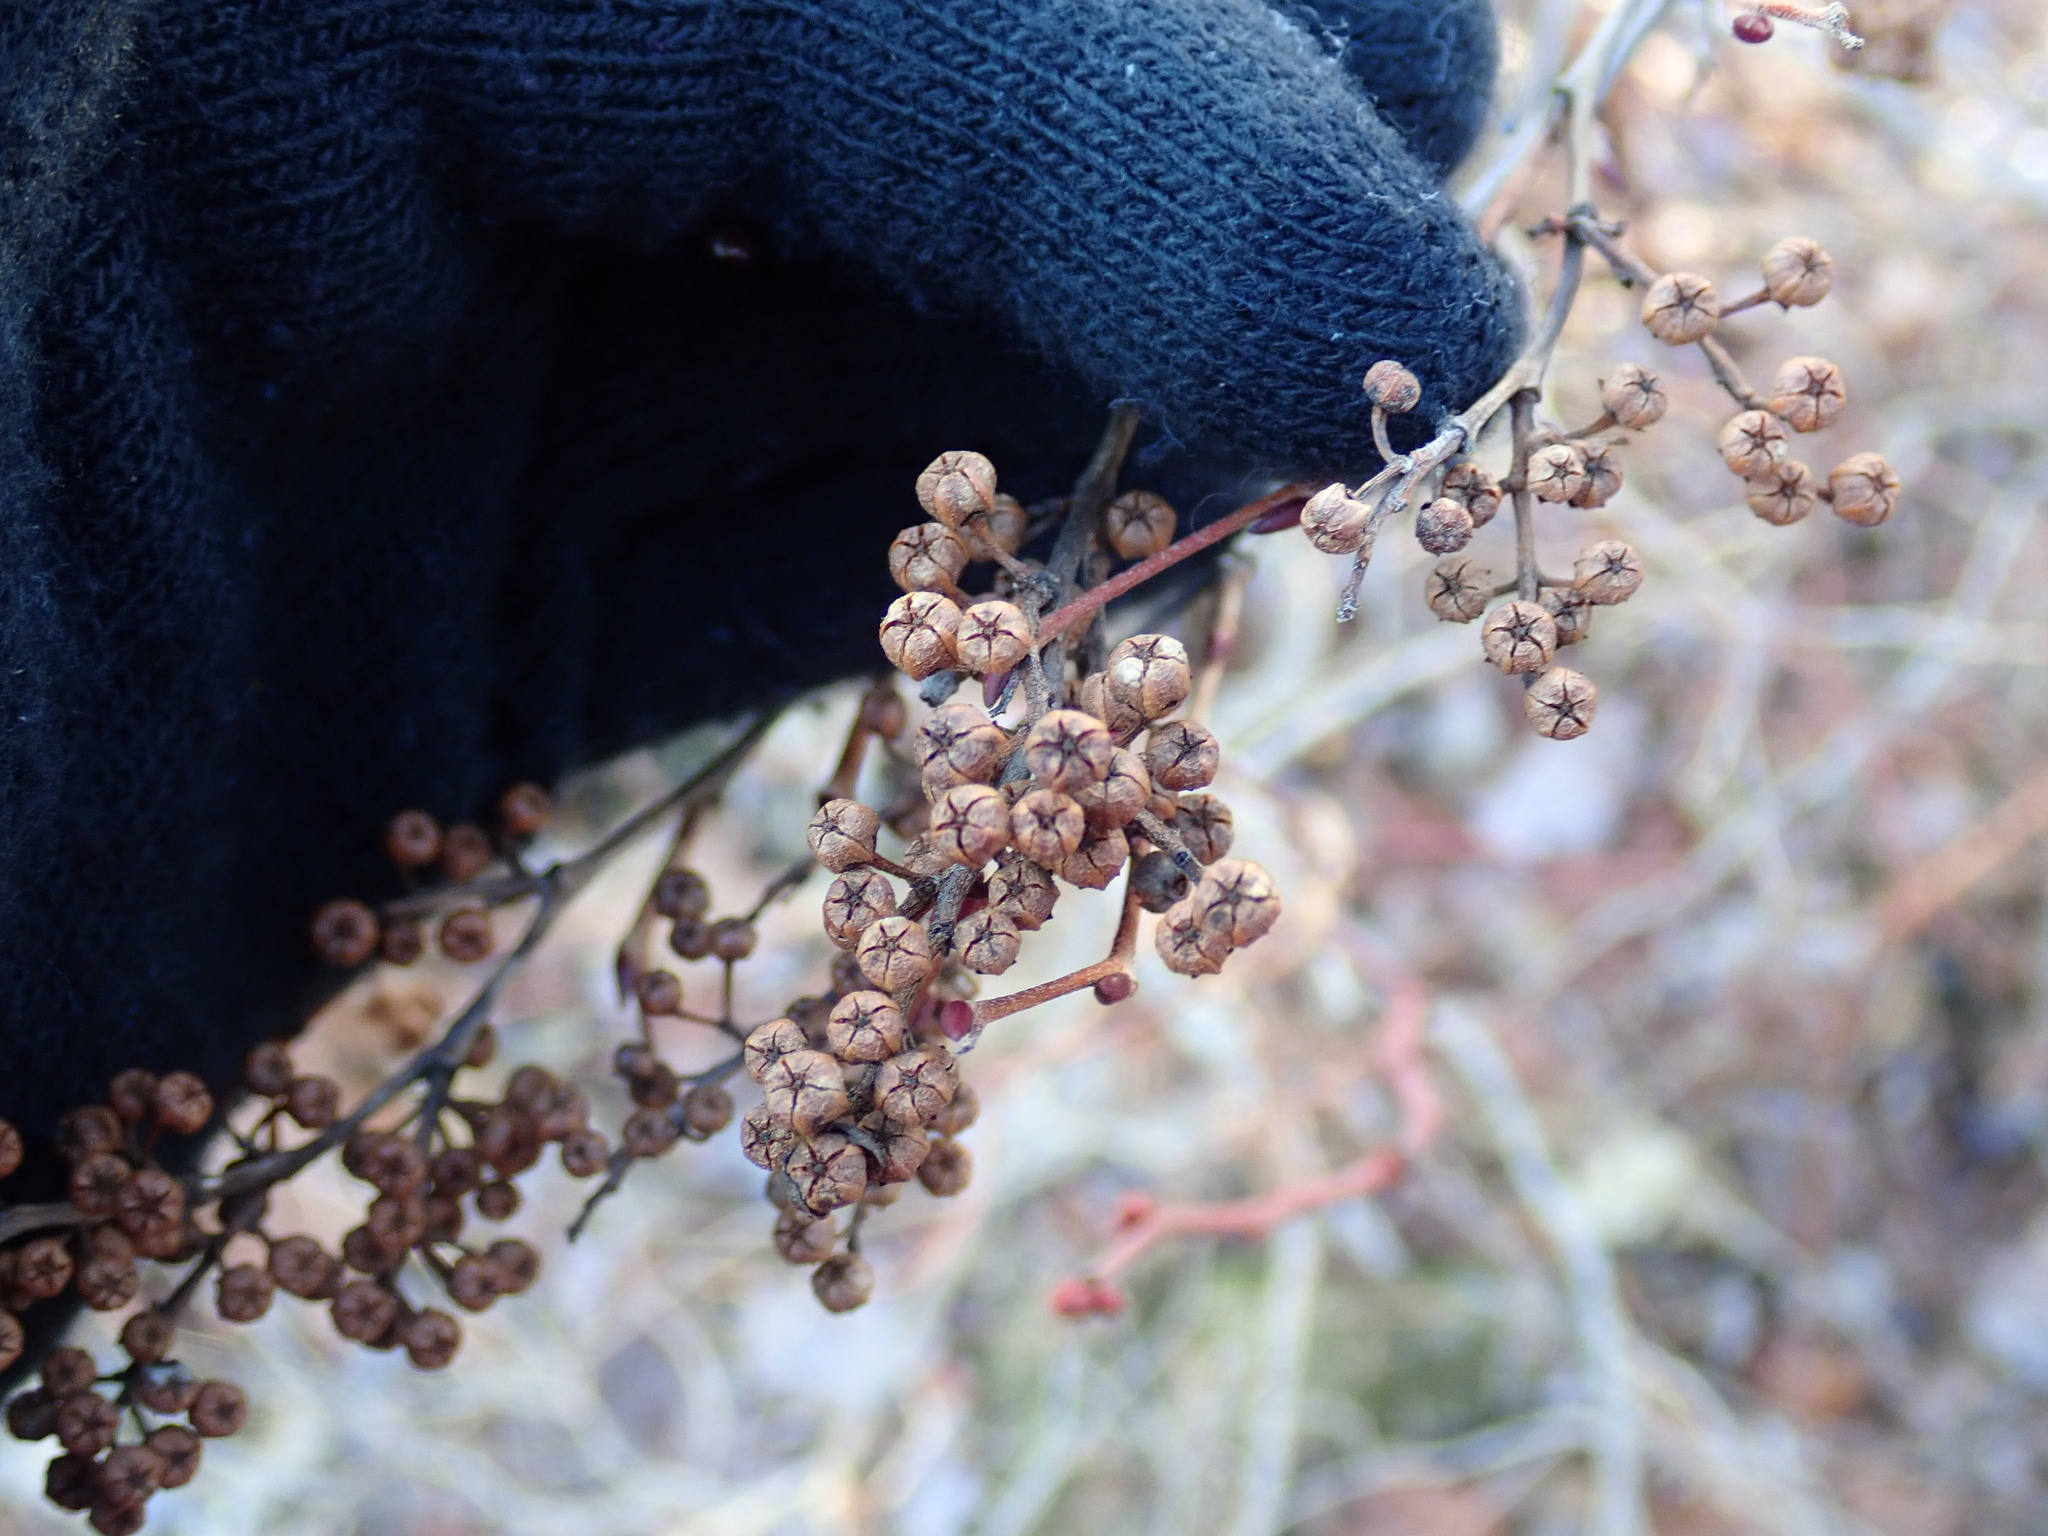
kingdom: Plantae
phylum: Tracheophyta
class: Magnoliopsida
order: Ericales
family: Ericaceae
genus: Lyonia
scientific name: Lyonia ligustrina
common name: Maleberry
